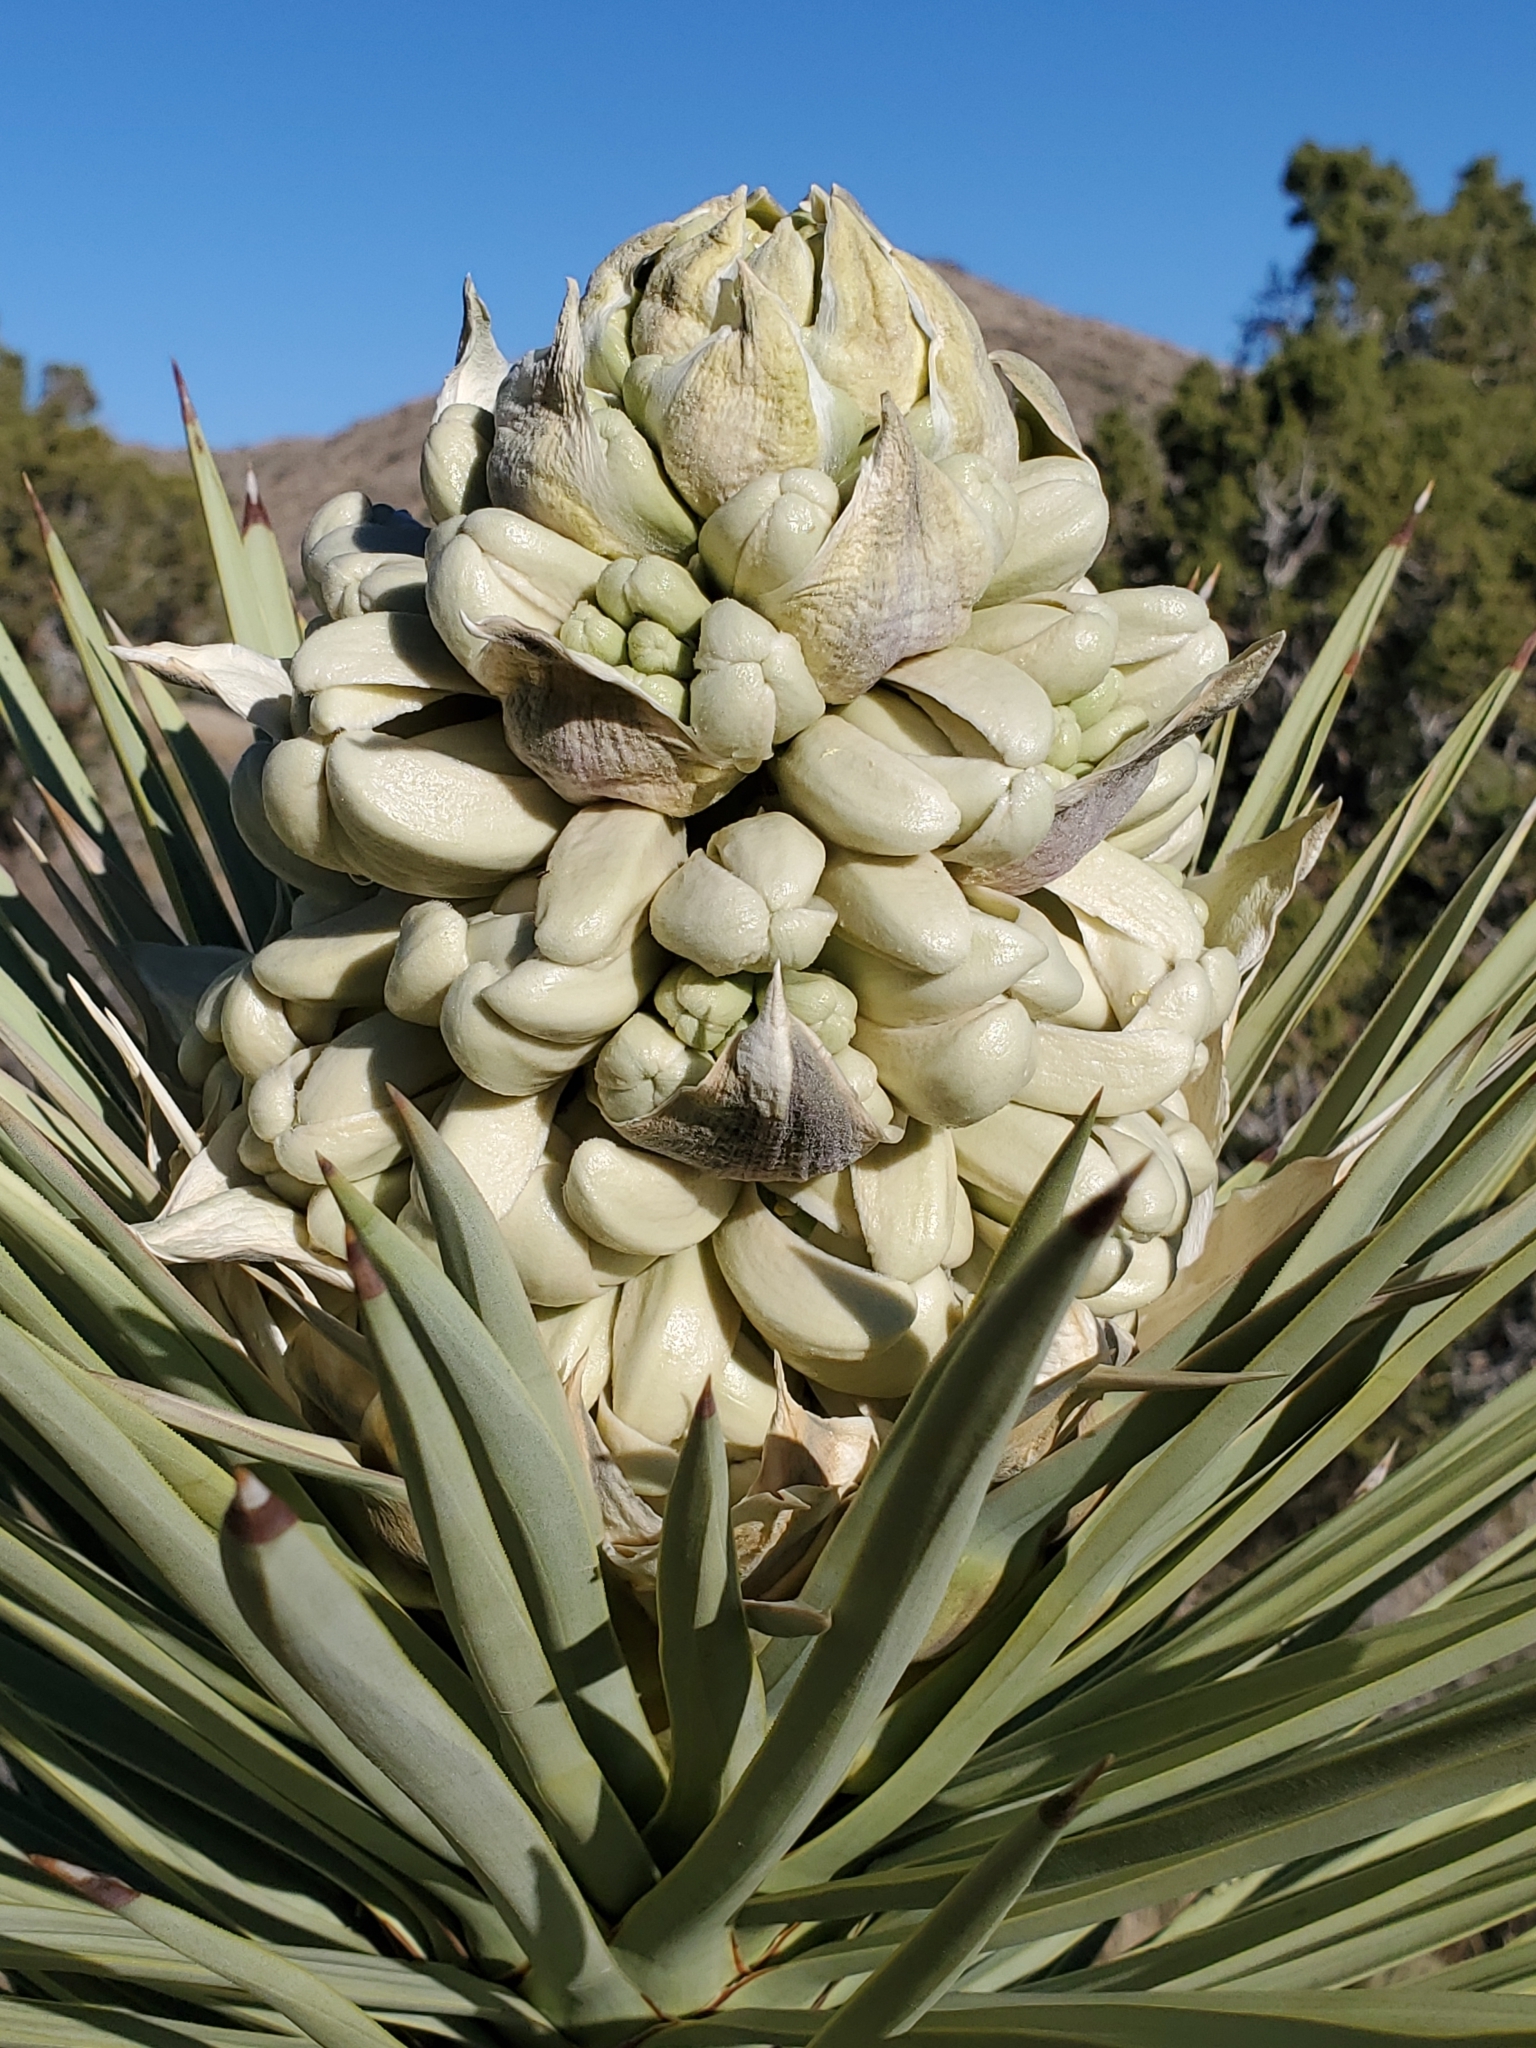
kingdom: Plantae
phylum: Tracheophyta
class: Liliopsida
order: Asparagales
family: Asparagaceae
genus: Yucca
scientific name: Yucca brevifolia
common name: Joshua tree
